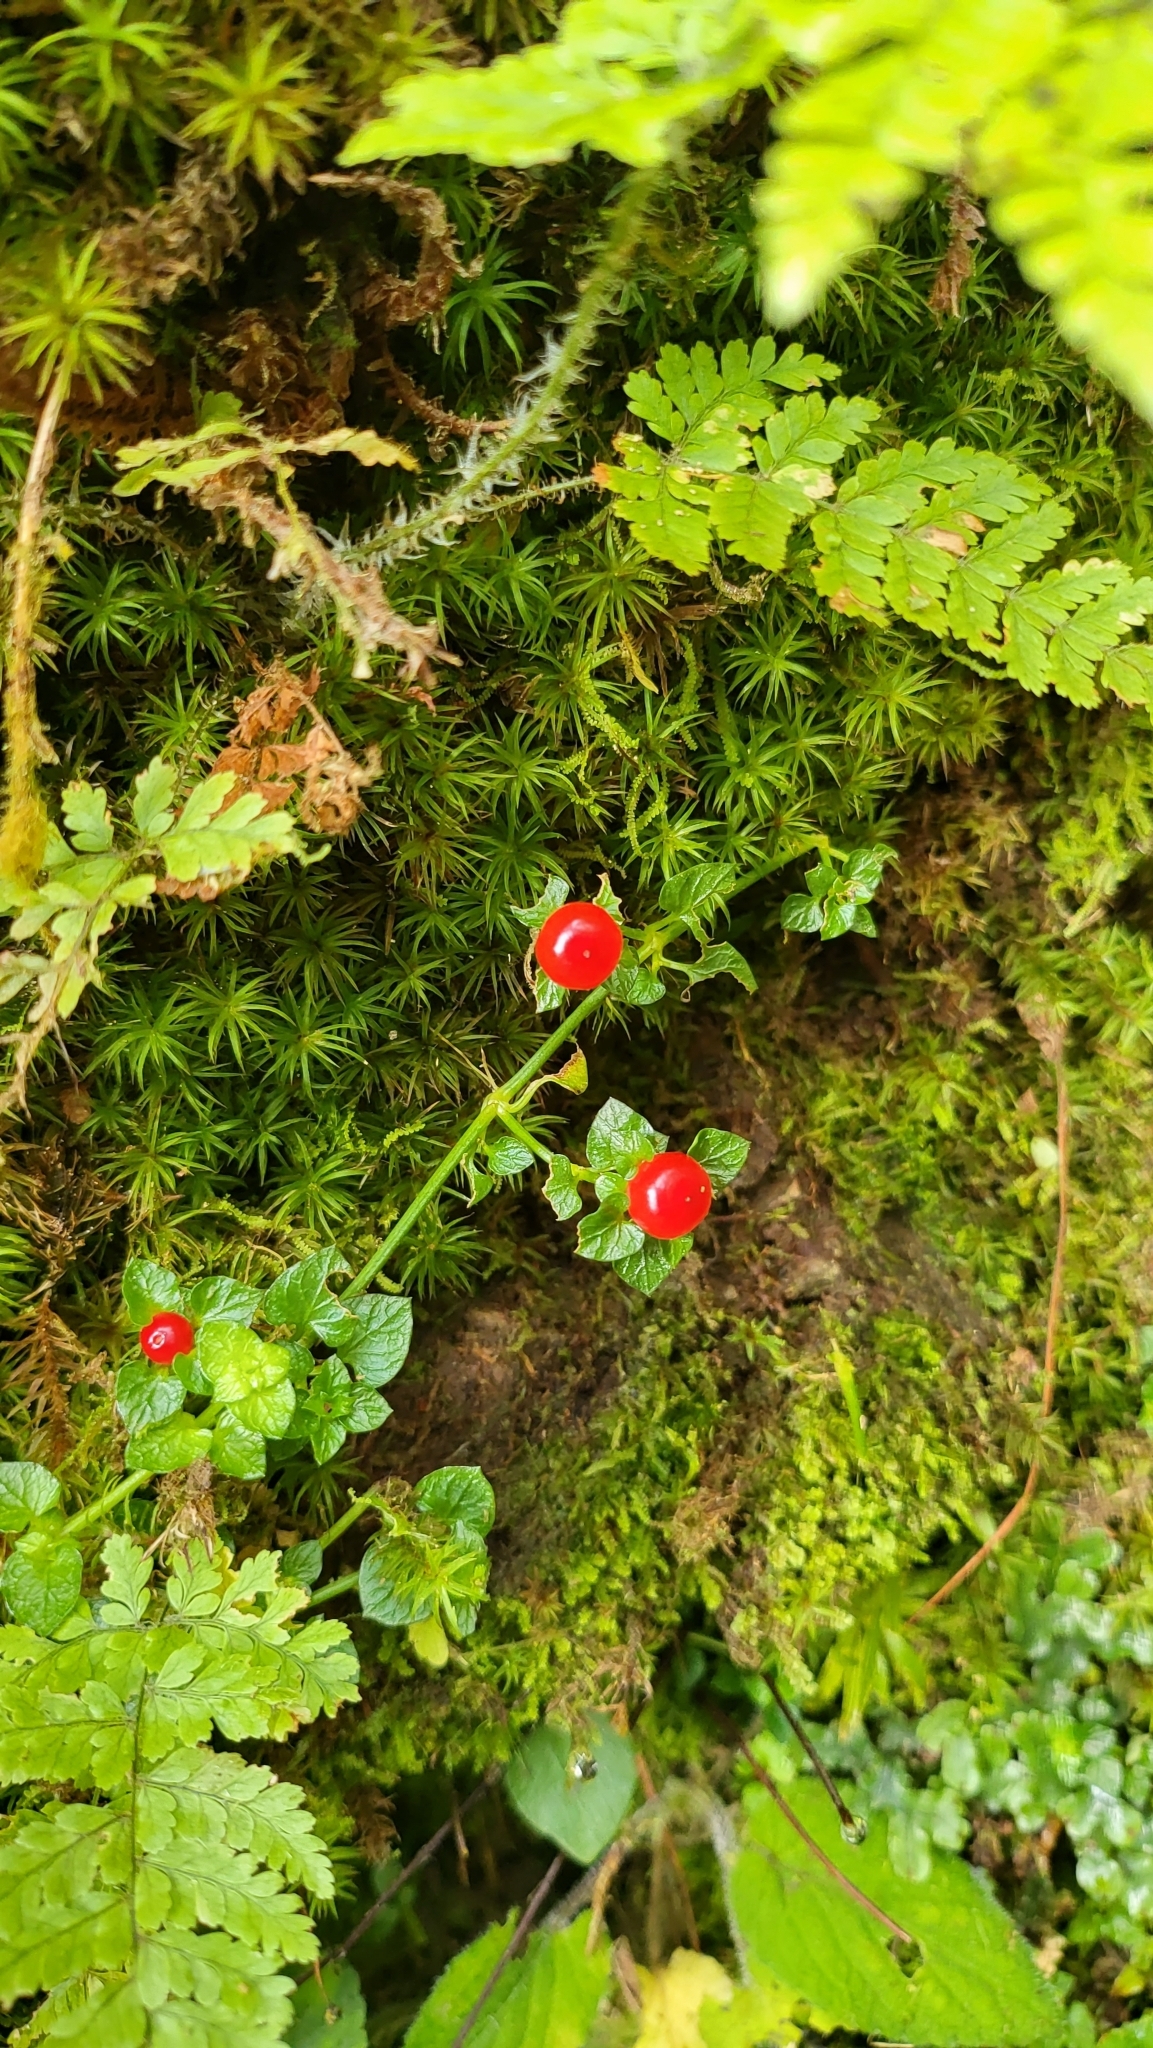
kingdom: Plantae
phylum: Tracheophyta
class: Magnoliopsida
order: Gentianales
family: Rubiaceae
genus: Nertera
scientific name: Nertera granadensis
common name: Beadplant
